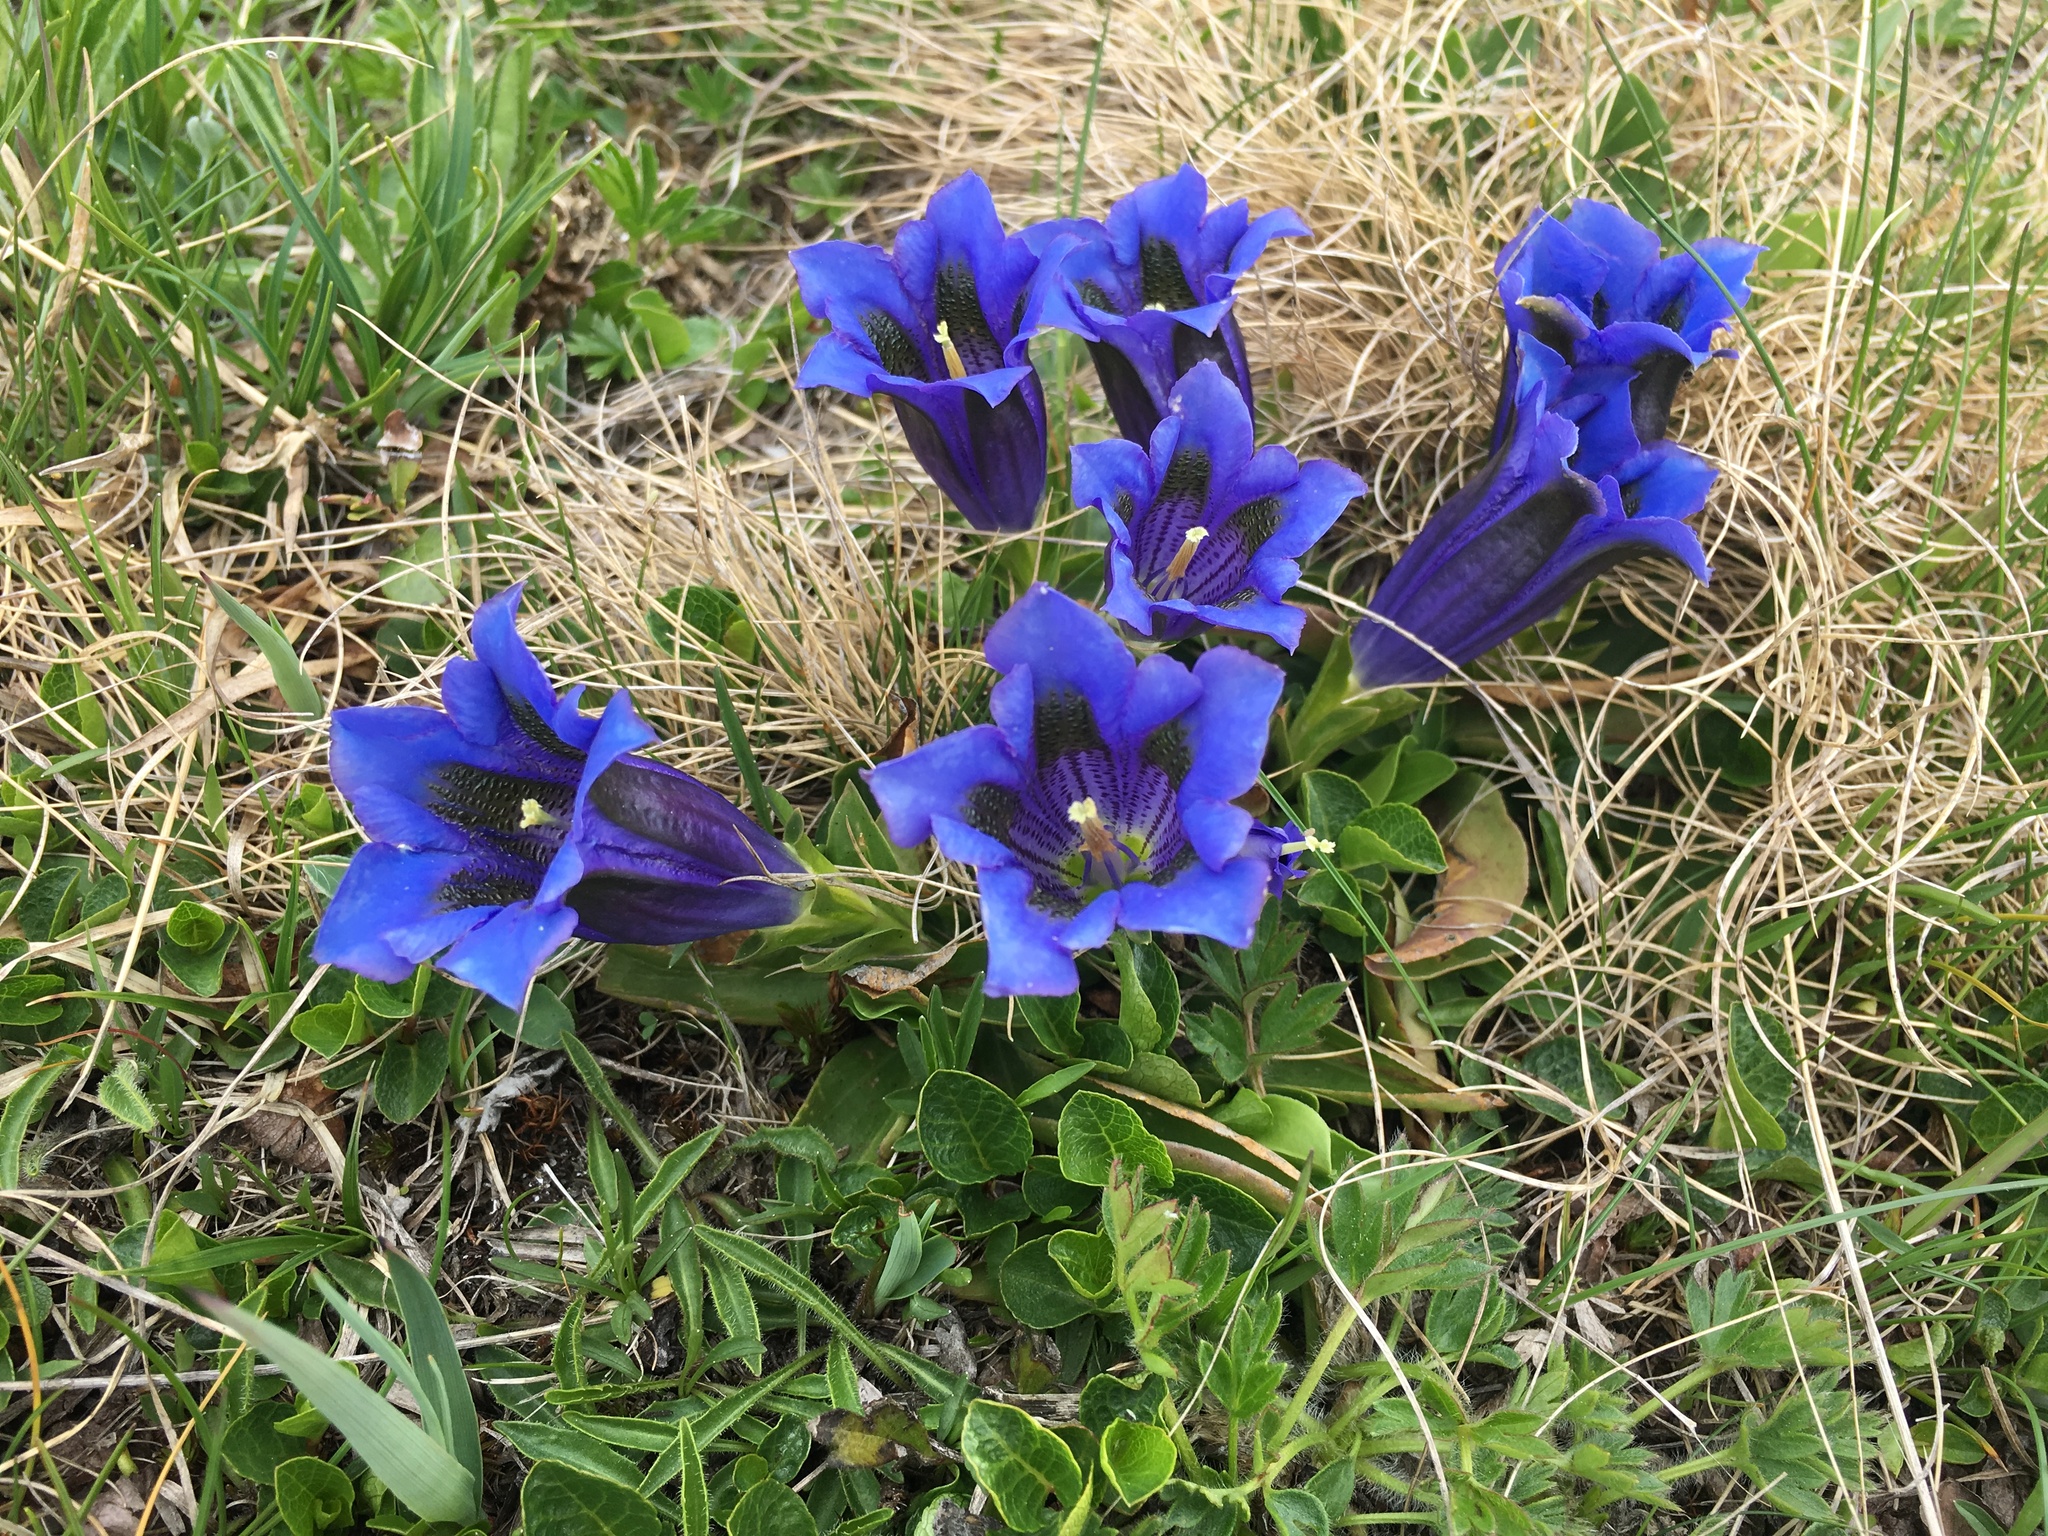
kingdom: Plantae
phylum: Tracheophyta
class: Magnoliopsida
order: Gentianales
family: Gentianaceae
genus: Gentiana
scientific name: Gentiana acaulis
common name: Trumpet gentian
